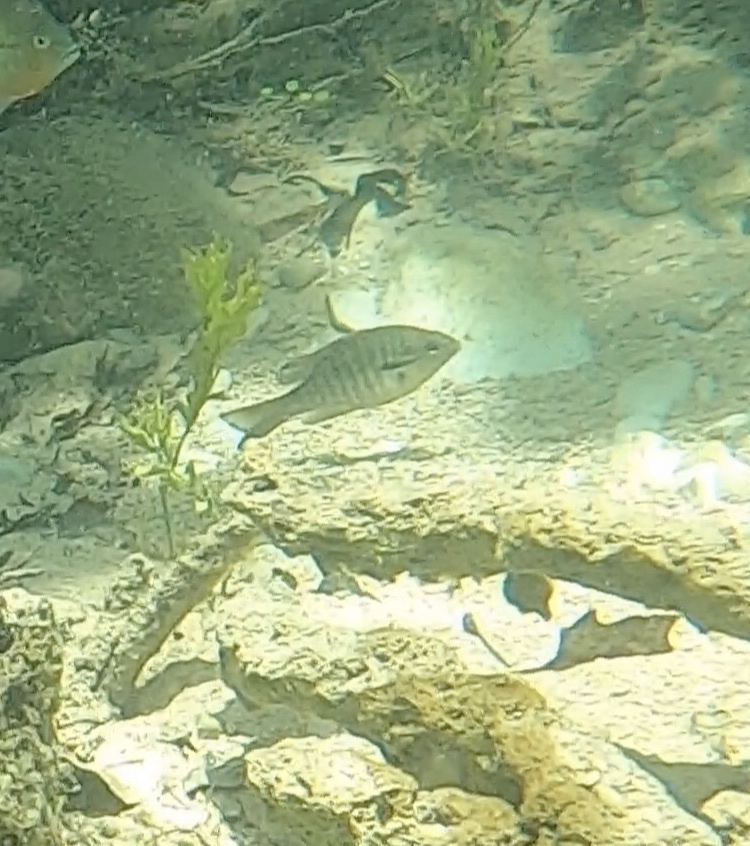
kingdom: Animalia
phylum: Chordata
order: Perciformes
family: Centrarchidae
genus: Lepomis
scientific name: Lepomis auritus
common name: Redbreast sunfish
